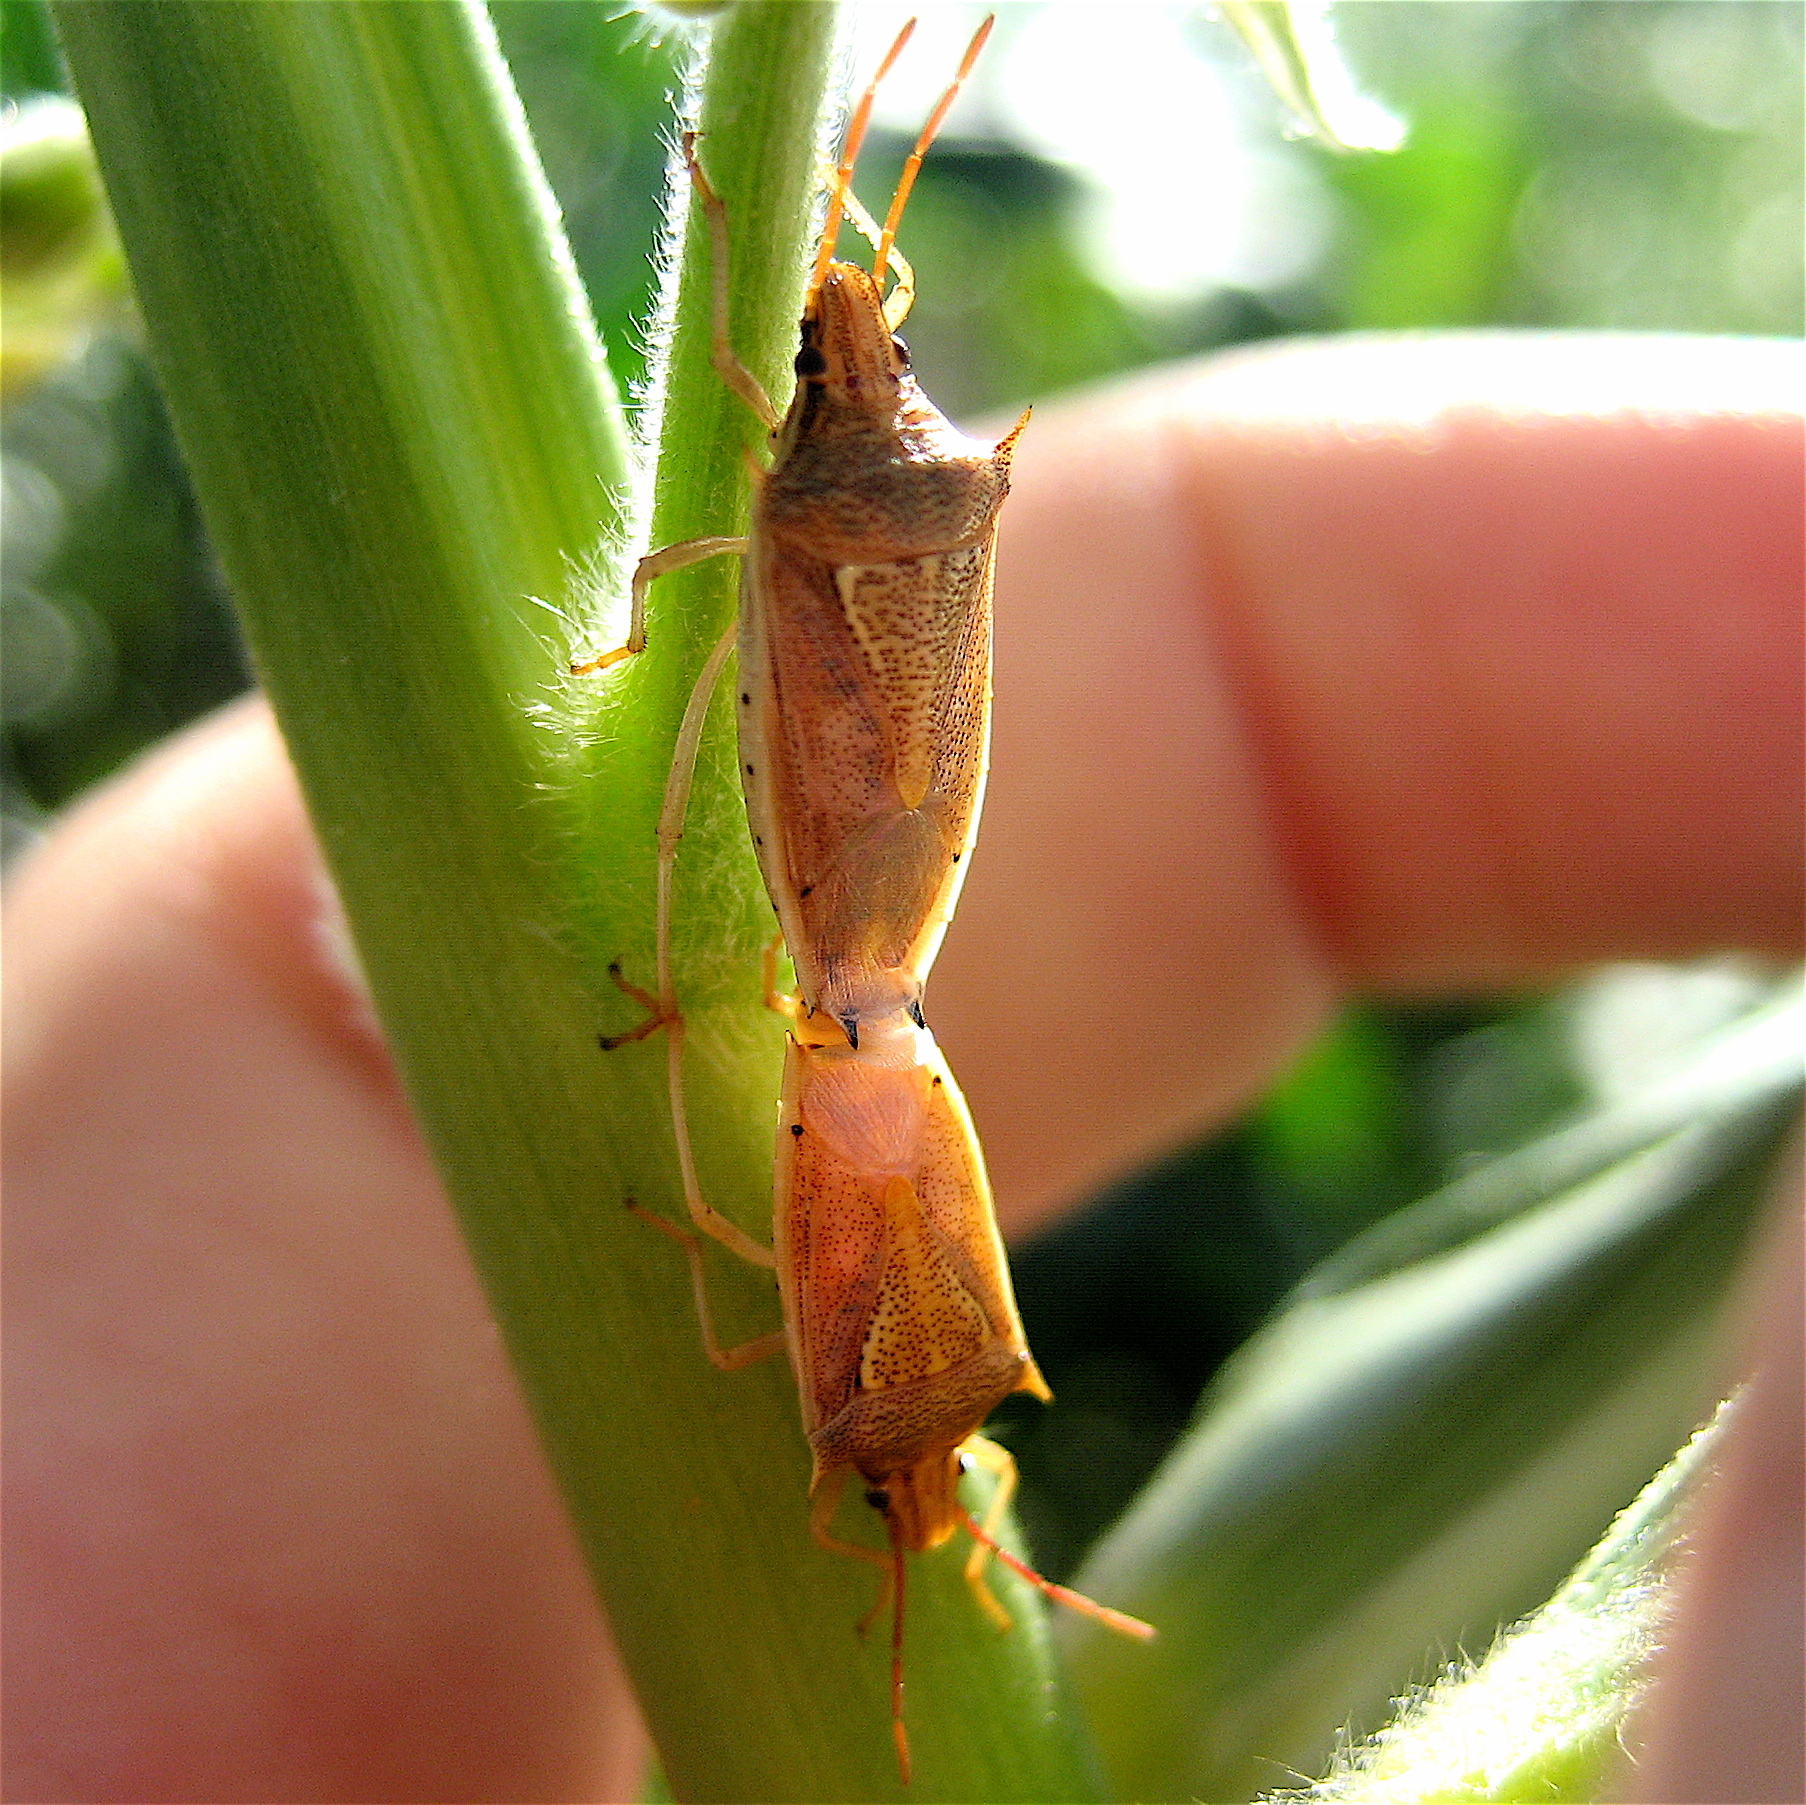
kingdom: Animalia
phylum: Arthropoda
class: Insecta
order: Hemiptera
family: Pentatomidae
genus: Oebalus
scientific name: Oebalus pugnax
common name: Rice stink bug
